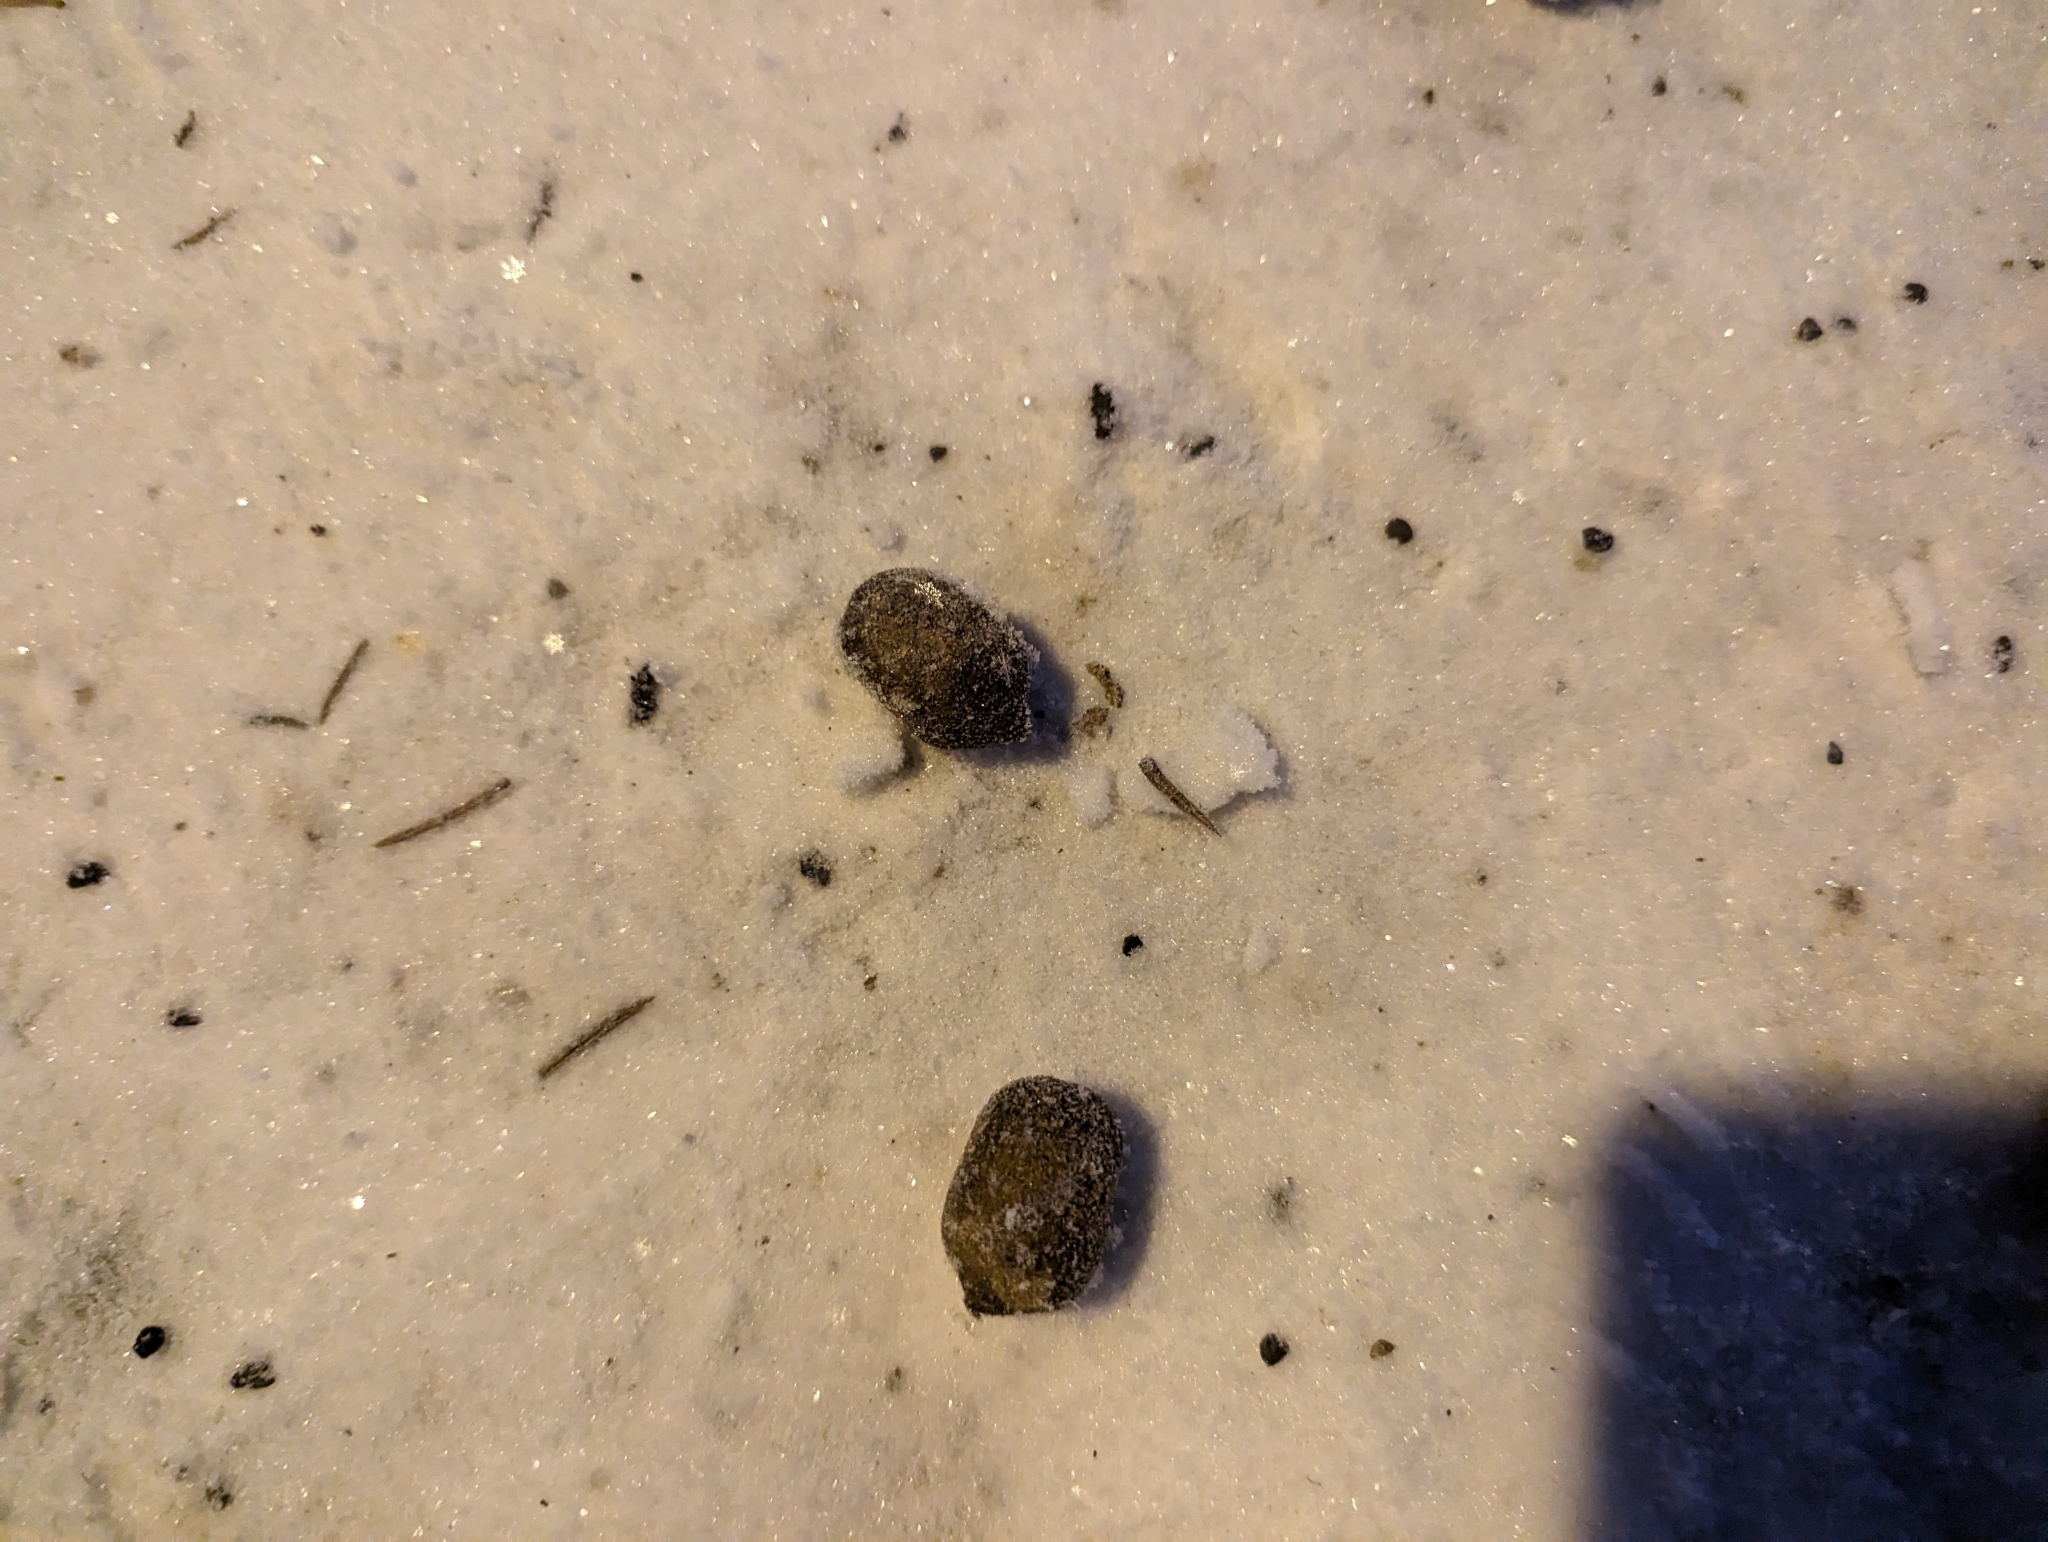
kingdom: Animalia
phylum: Chordata
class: Mammalia
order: Artiodactyla
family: Cervidae
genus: Alces
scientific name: Alces alces
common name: Moose
